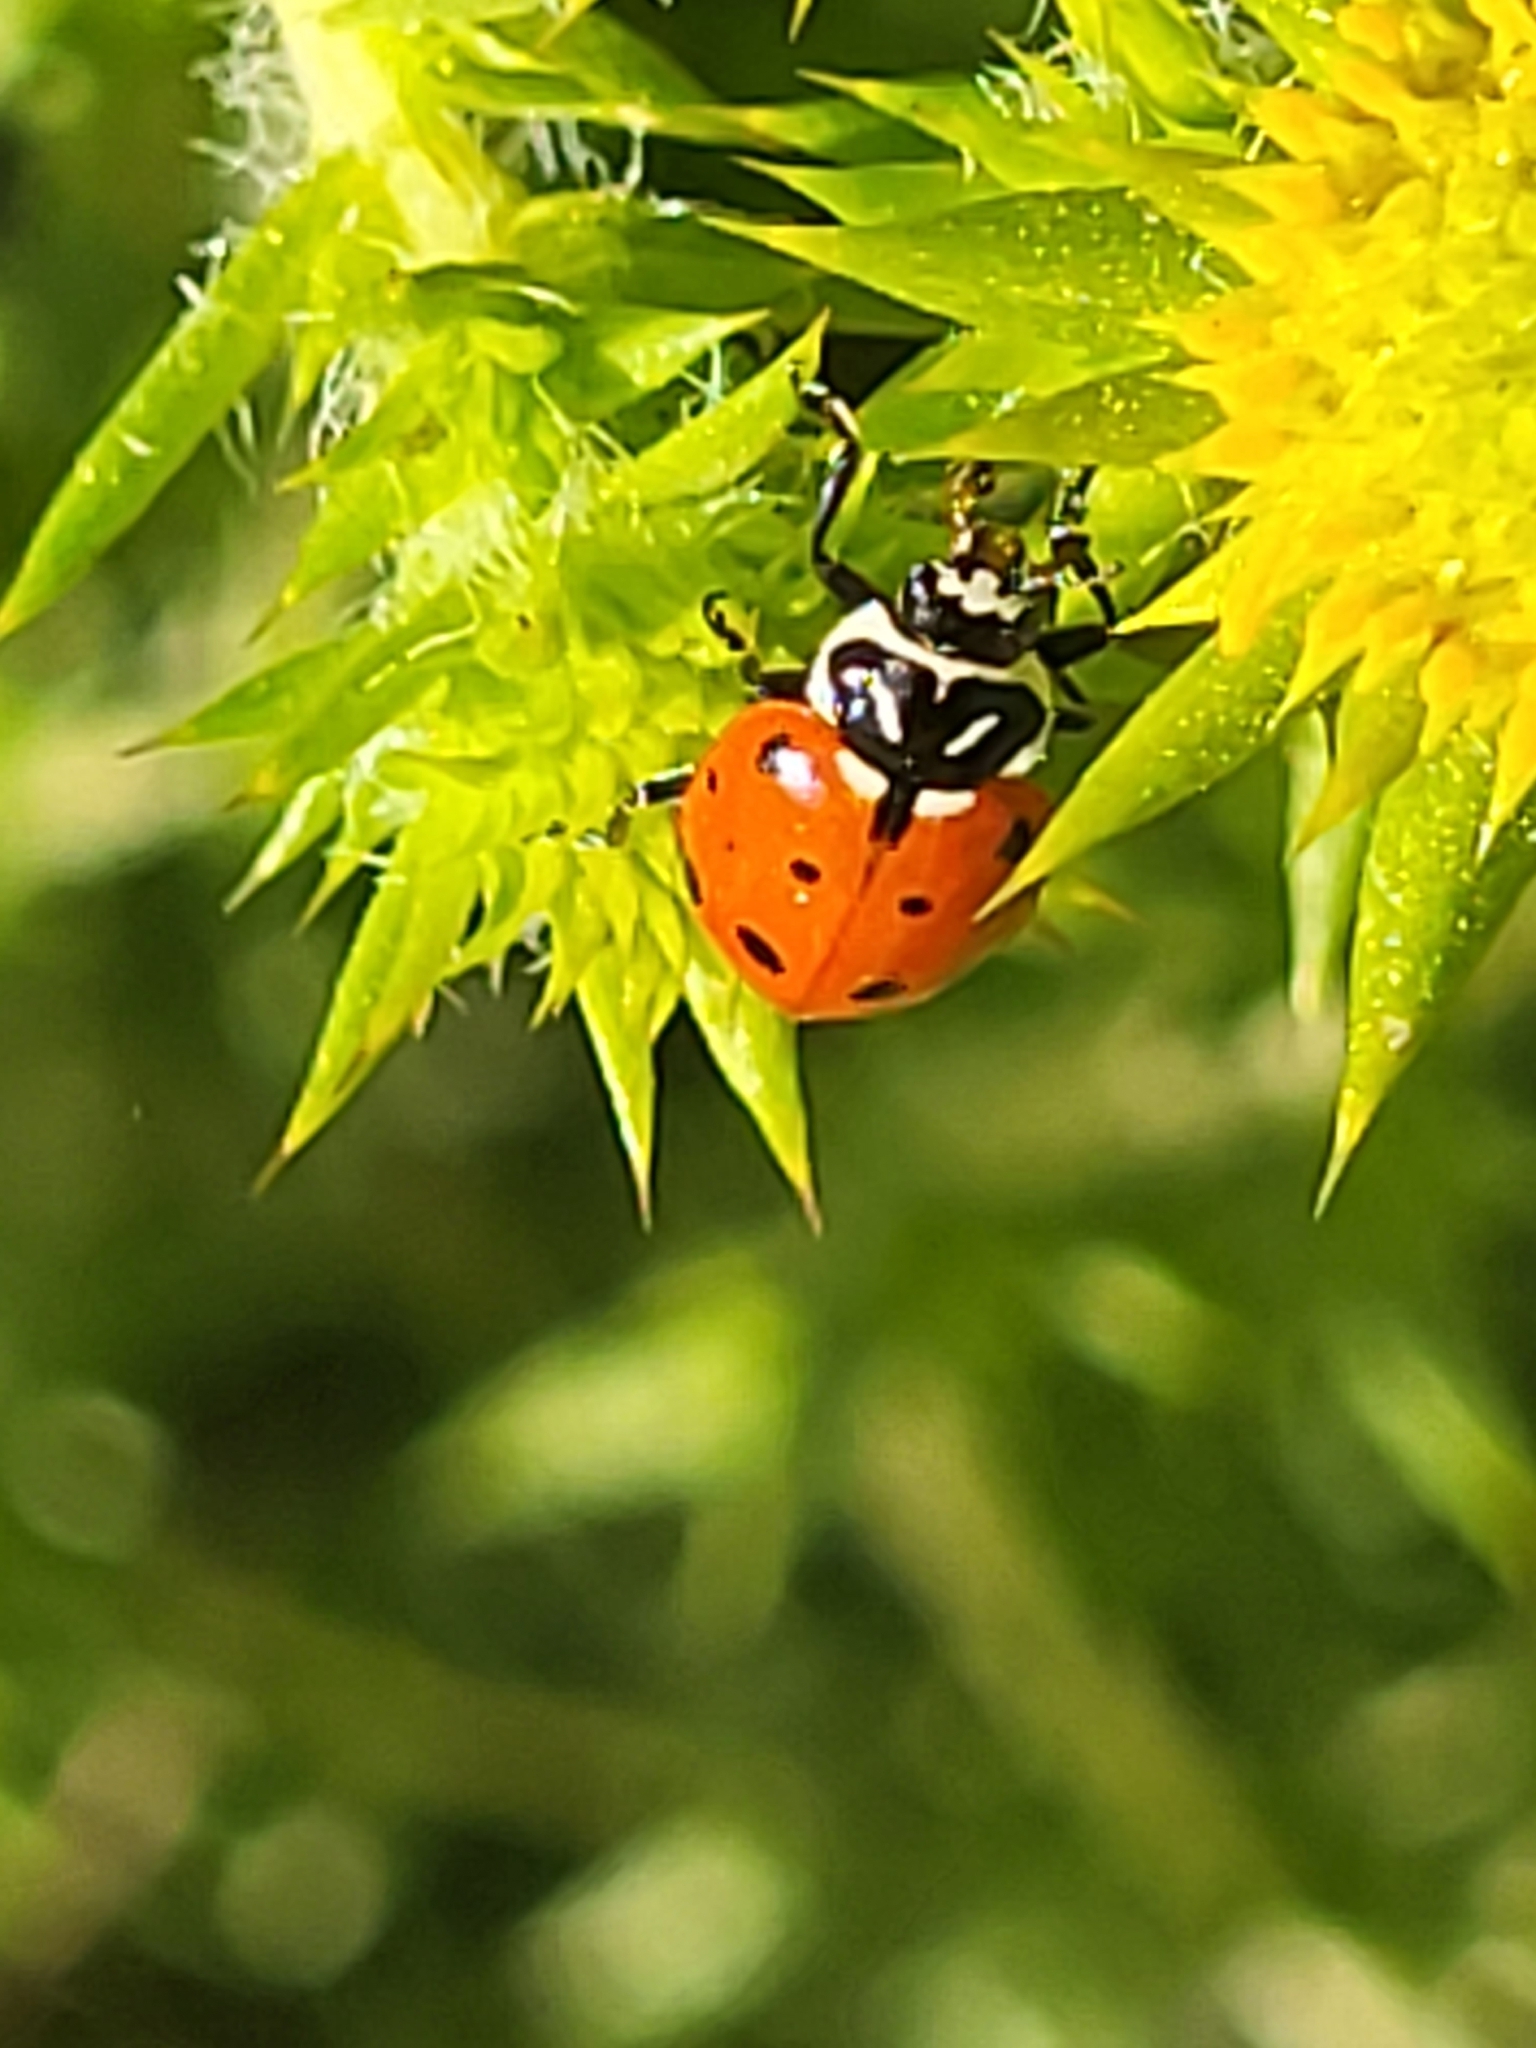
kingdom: Animalia
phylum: Arthropoda
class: Insecta
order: Coleoptera
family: Coccinellidae
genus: Hippodamia
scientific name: Hippodamia convergens
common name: Convergent lady beetle
